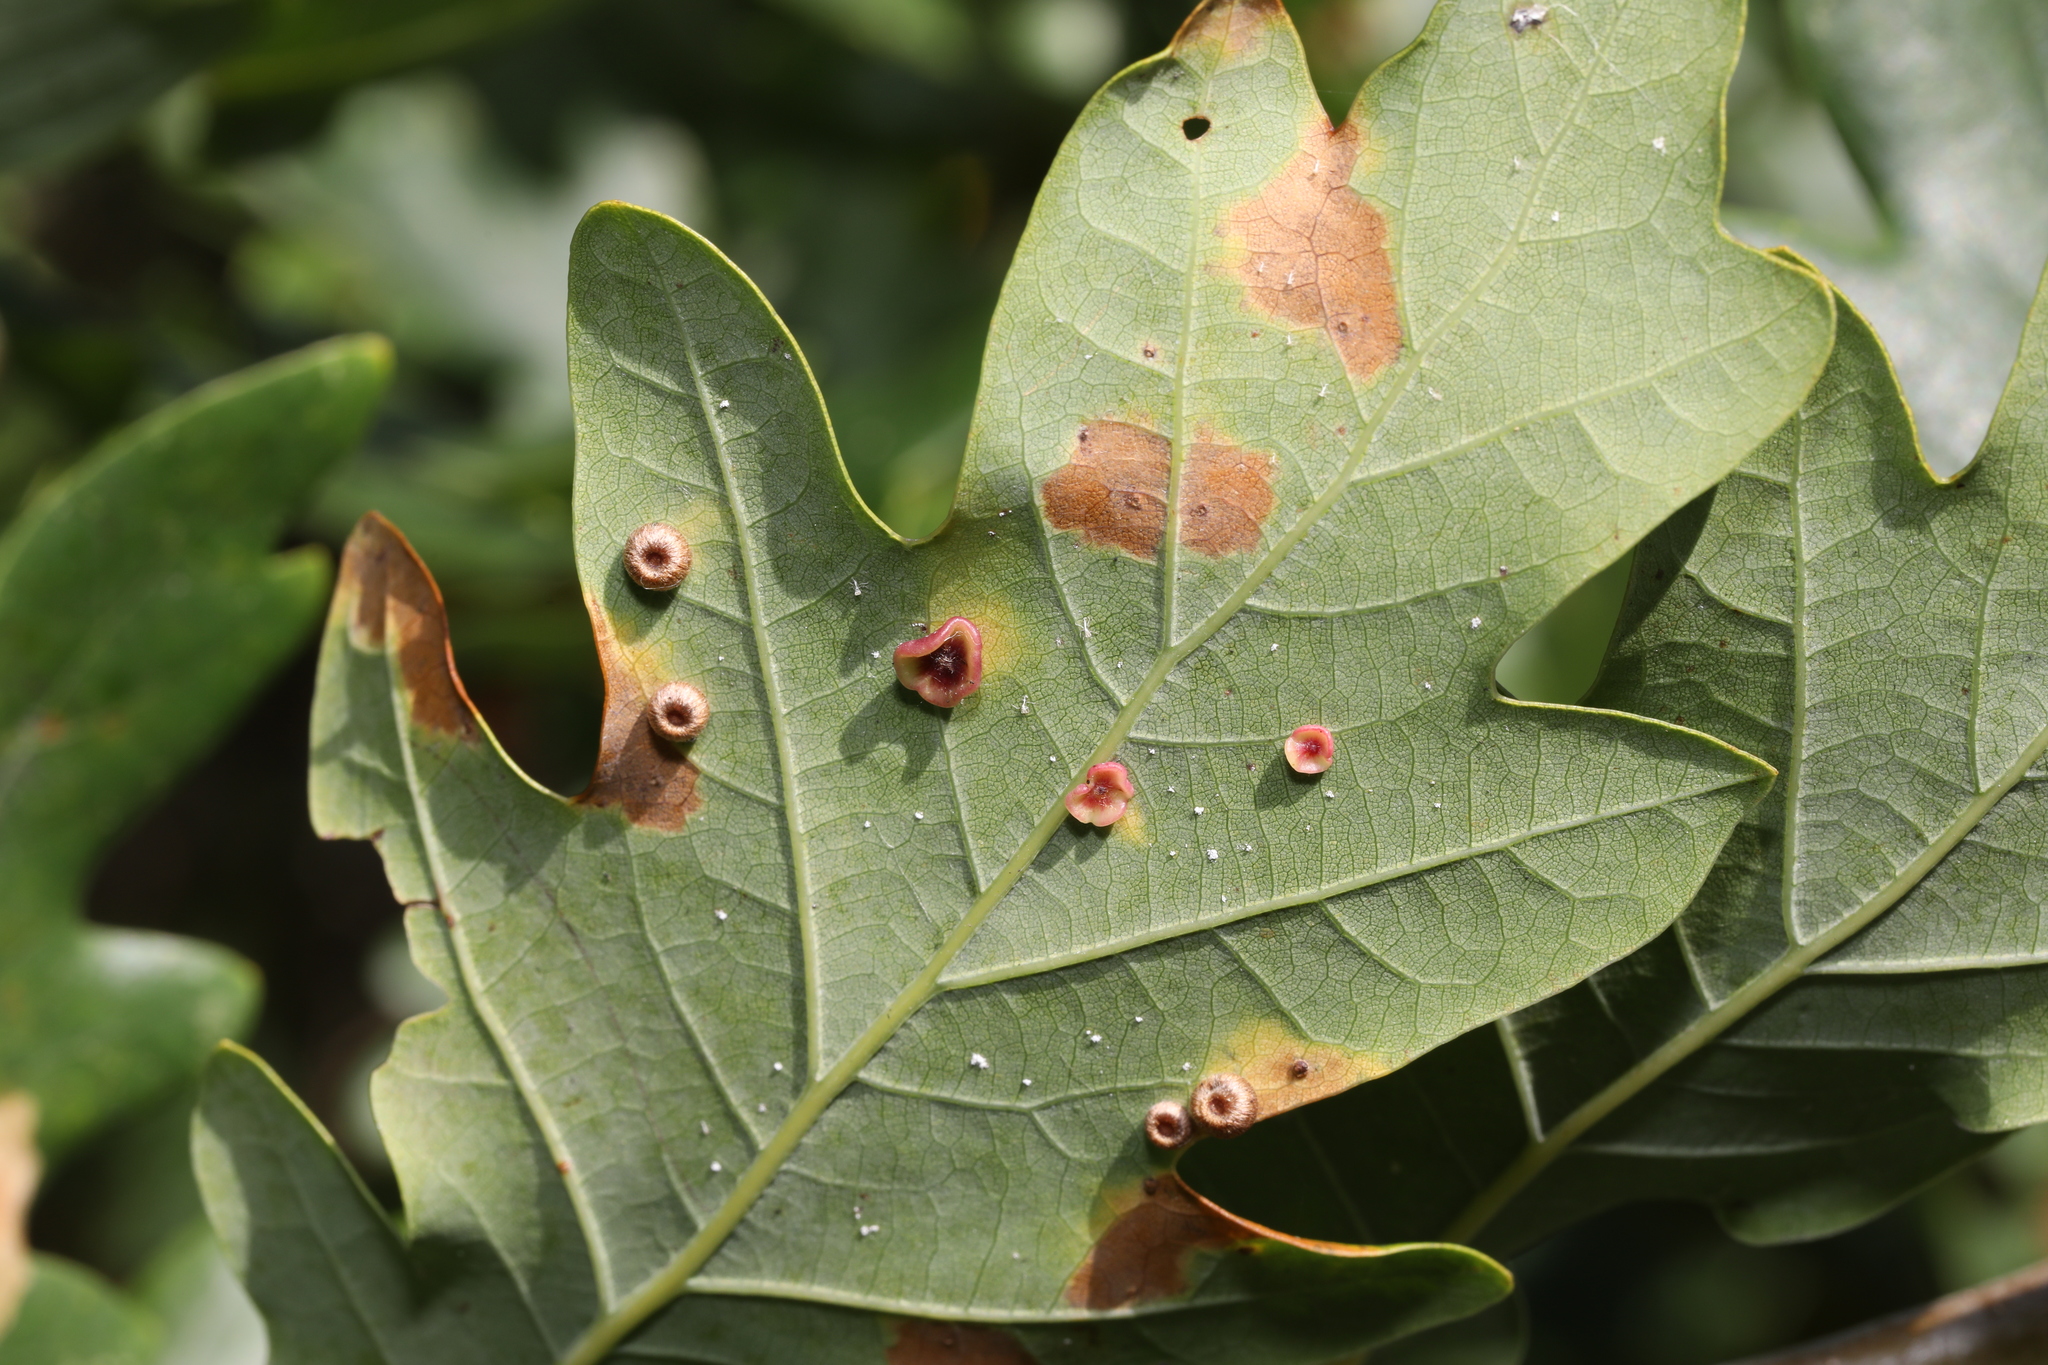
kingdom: Animalia
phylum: Arthropoda
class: Insecta
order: Hymenoptera
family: Cynipidae
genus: Neuroterus
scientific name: Neuroterus numismalis
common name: Silk-button spangle gall
